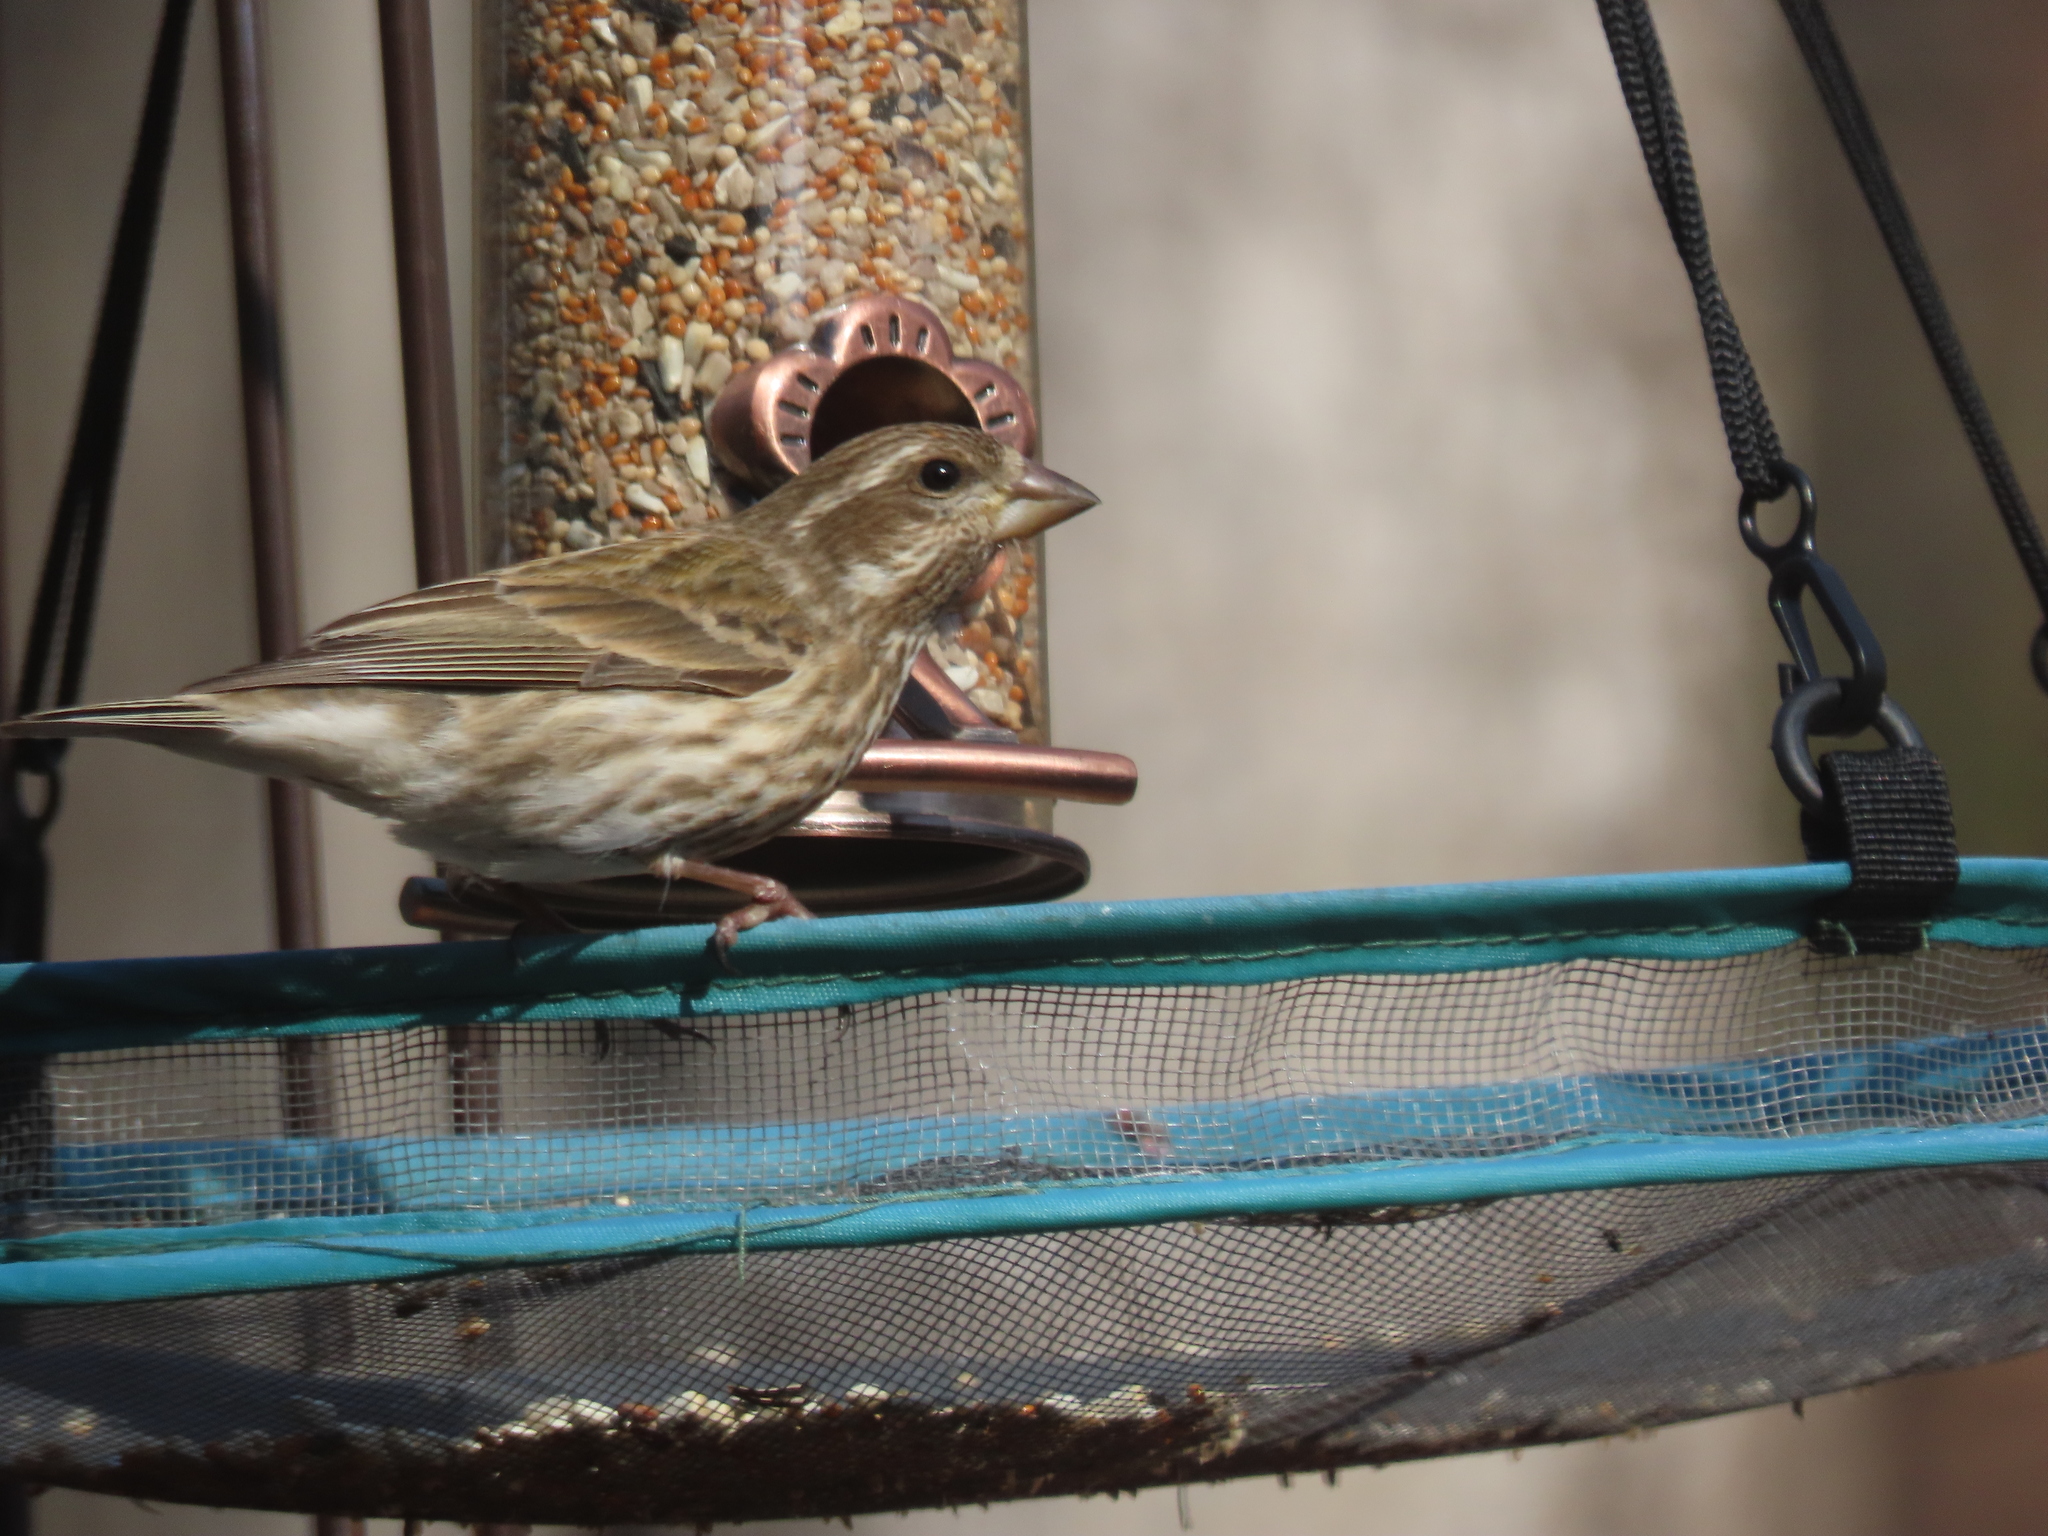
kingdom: Animalia
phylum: Chordata
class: Aves
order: Passeriformes
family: Fringillidae
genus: Haemorhous
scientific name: Haemorhous purpureus
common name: Purple finch
